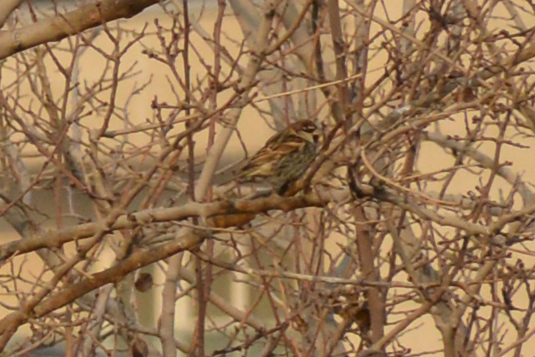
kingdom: Animalia
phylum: Chordata
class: Aves
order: Passeriformes
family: Passeridae
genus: Passer
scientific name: Passer hispaniolensis
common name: Spanish sparrow
